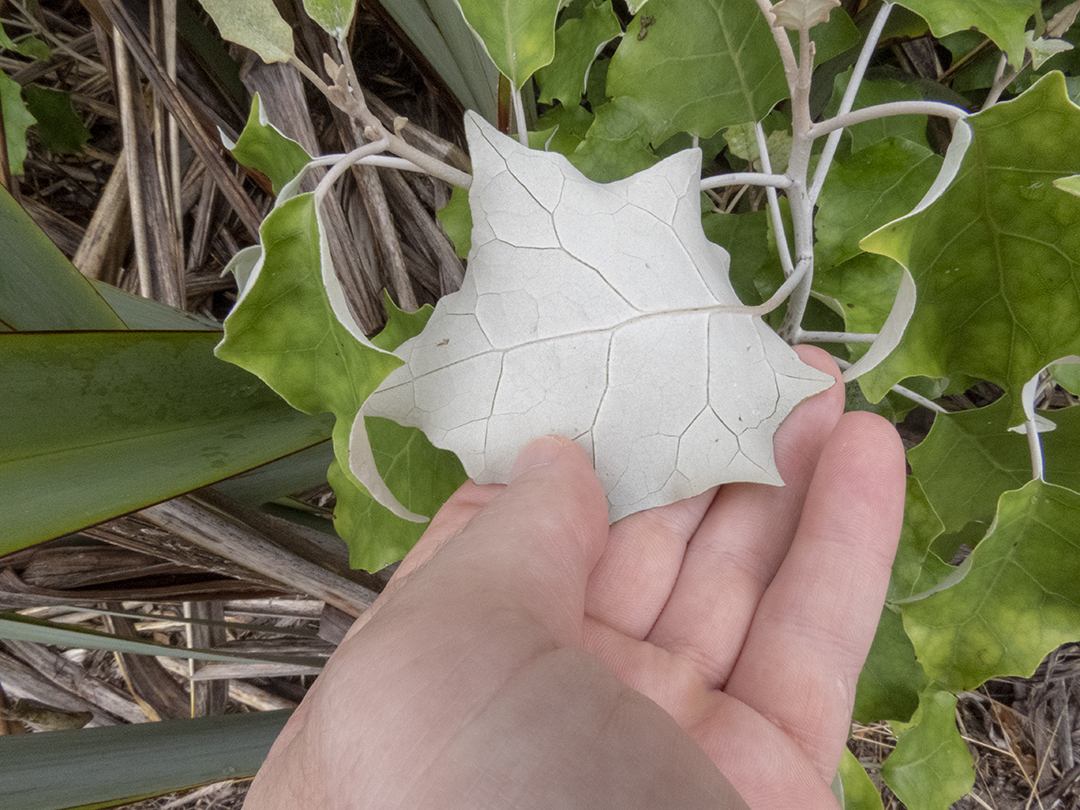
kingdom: Plantae
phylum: Tracheophyta
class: Magnoliopsida
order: Asterales
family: Asteraceae
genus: Brachyglottis
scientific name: Brachyglottis repanda
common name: Hedge ragwort
